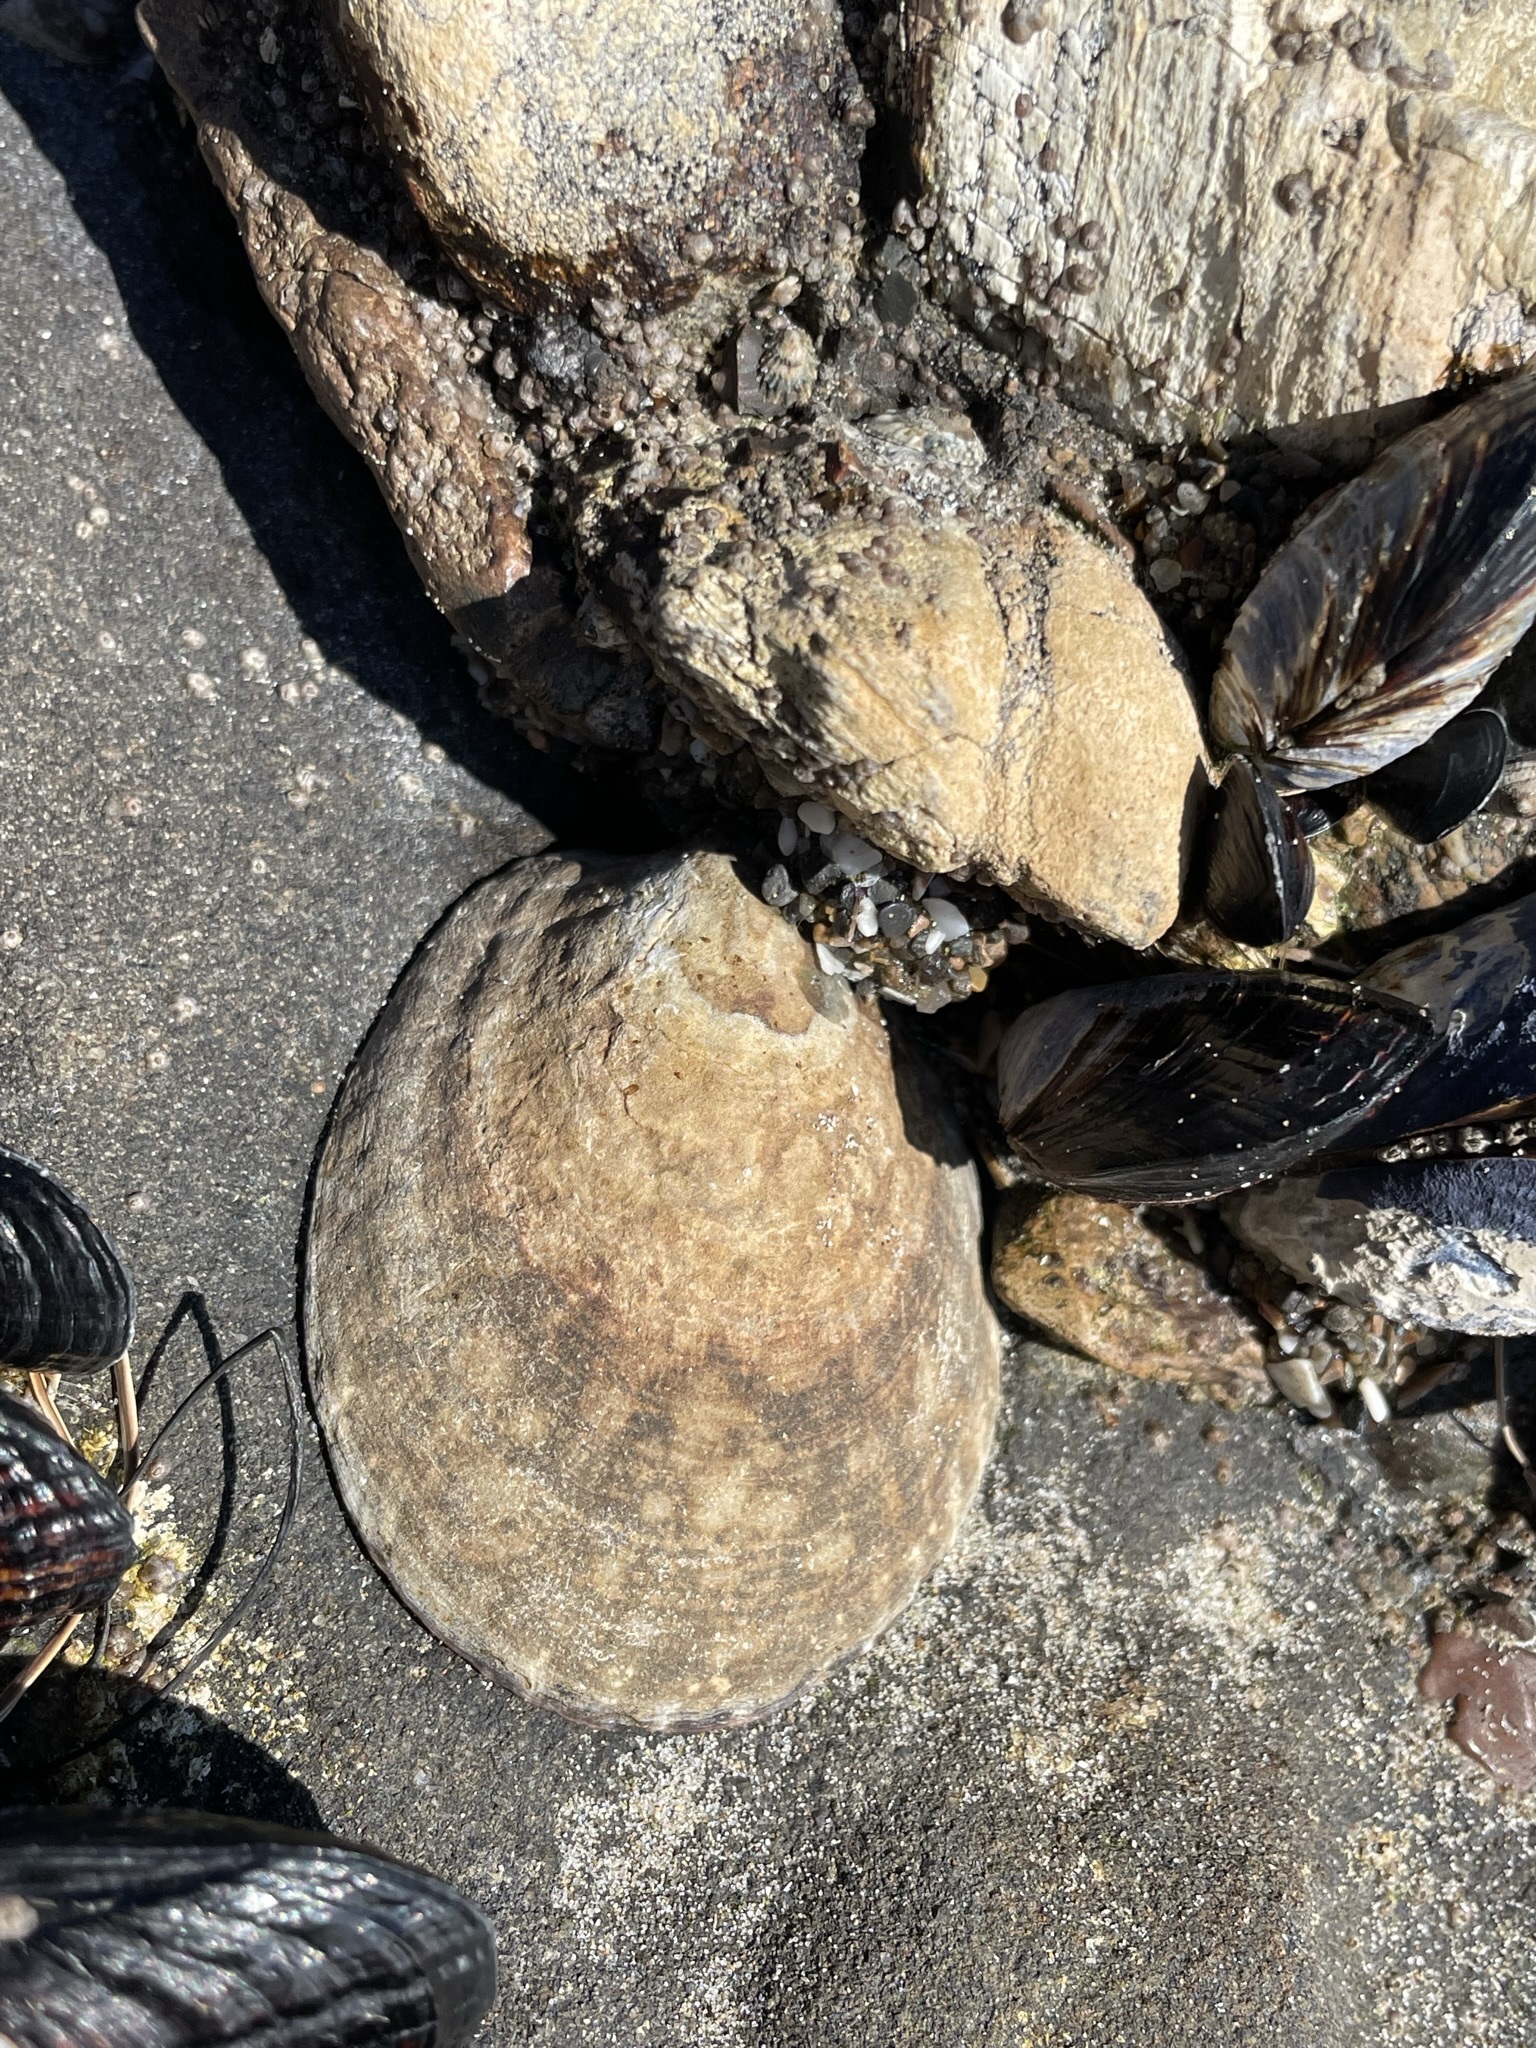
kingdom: Animalia
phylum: Mollusca
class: Gastropoda
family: Lottiidae
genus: Lottia
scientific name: Lottia gigantea
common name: Owl limpet
